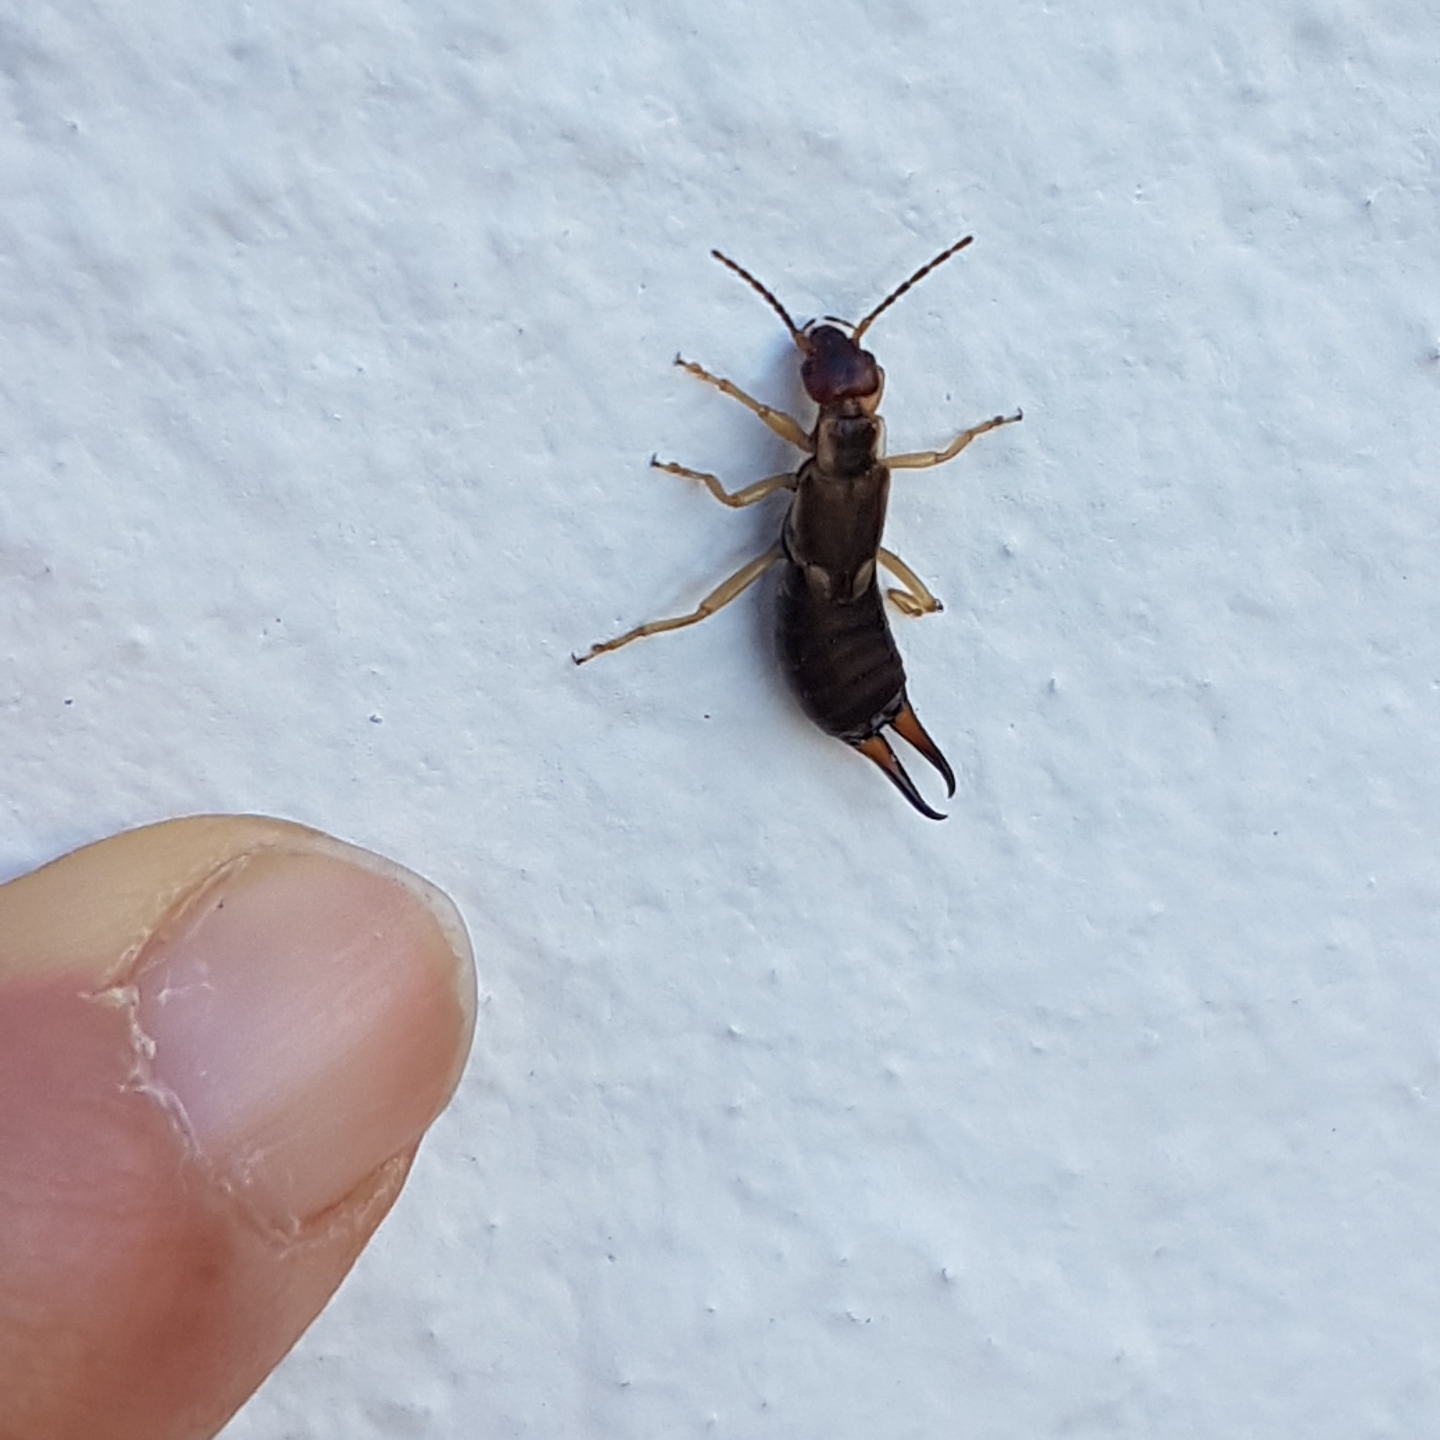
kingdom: Animalia
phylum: Arthropoda
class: Insecta
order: Dermaptera
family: Forficulidae
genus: Forficula
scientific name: Forficula
